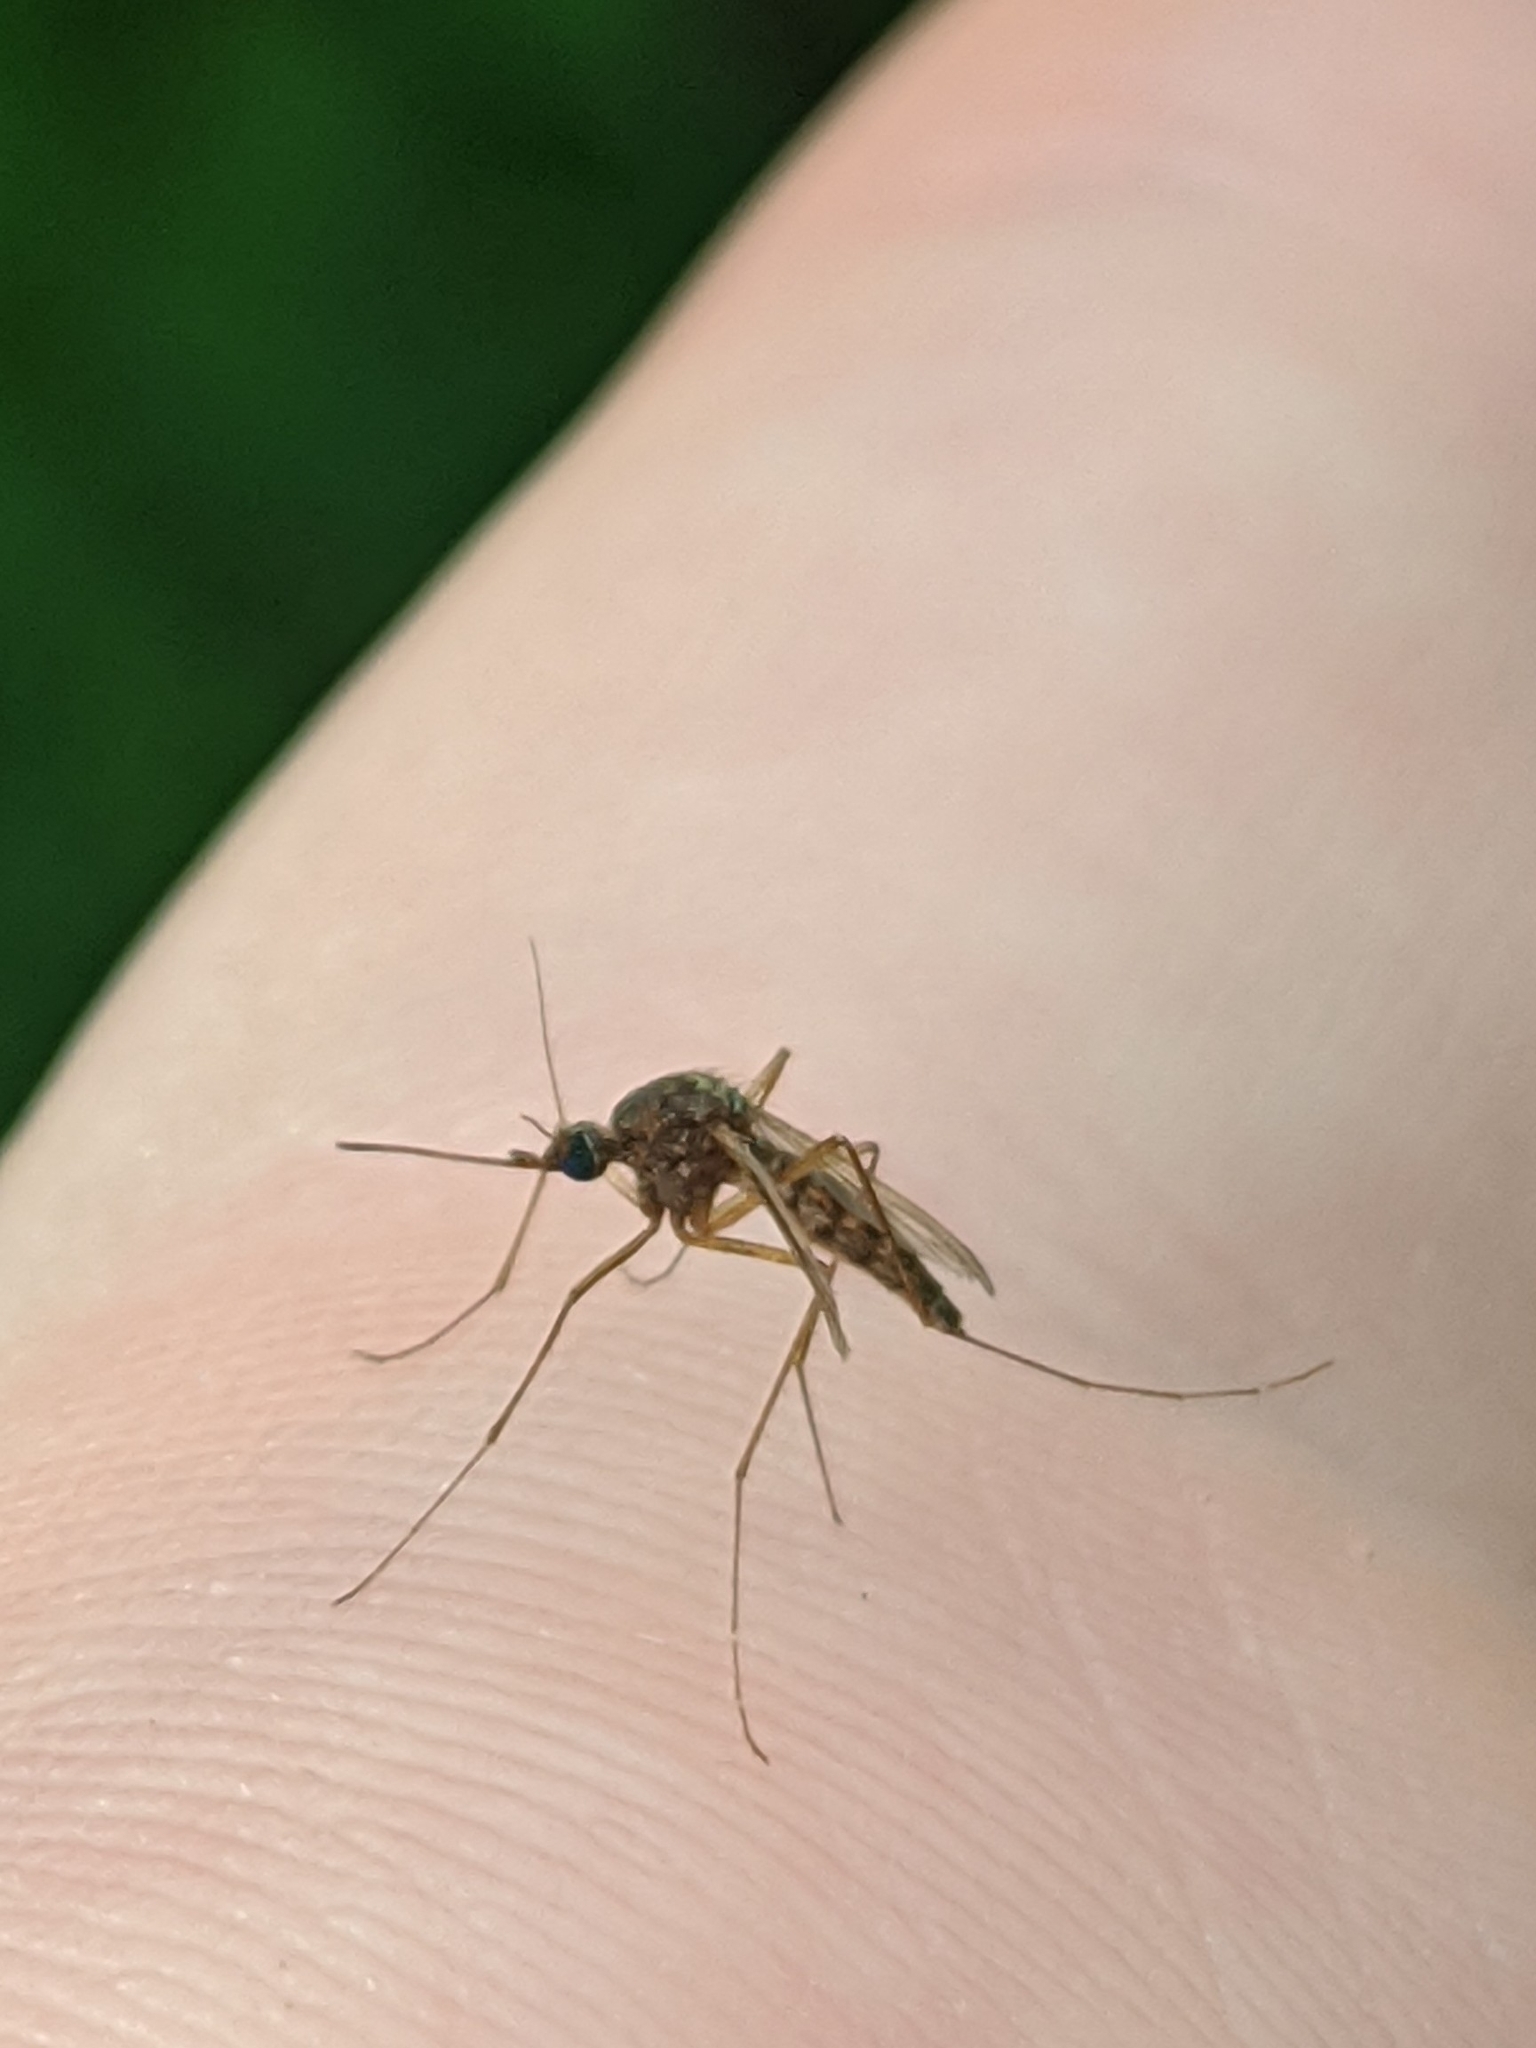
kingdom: Animalia
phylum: Arthropoda
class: Insecta
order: Diptera
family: Culicidae
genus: Aedes
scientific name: Aedes vexans
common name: Inland floodwater mosquito
